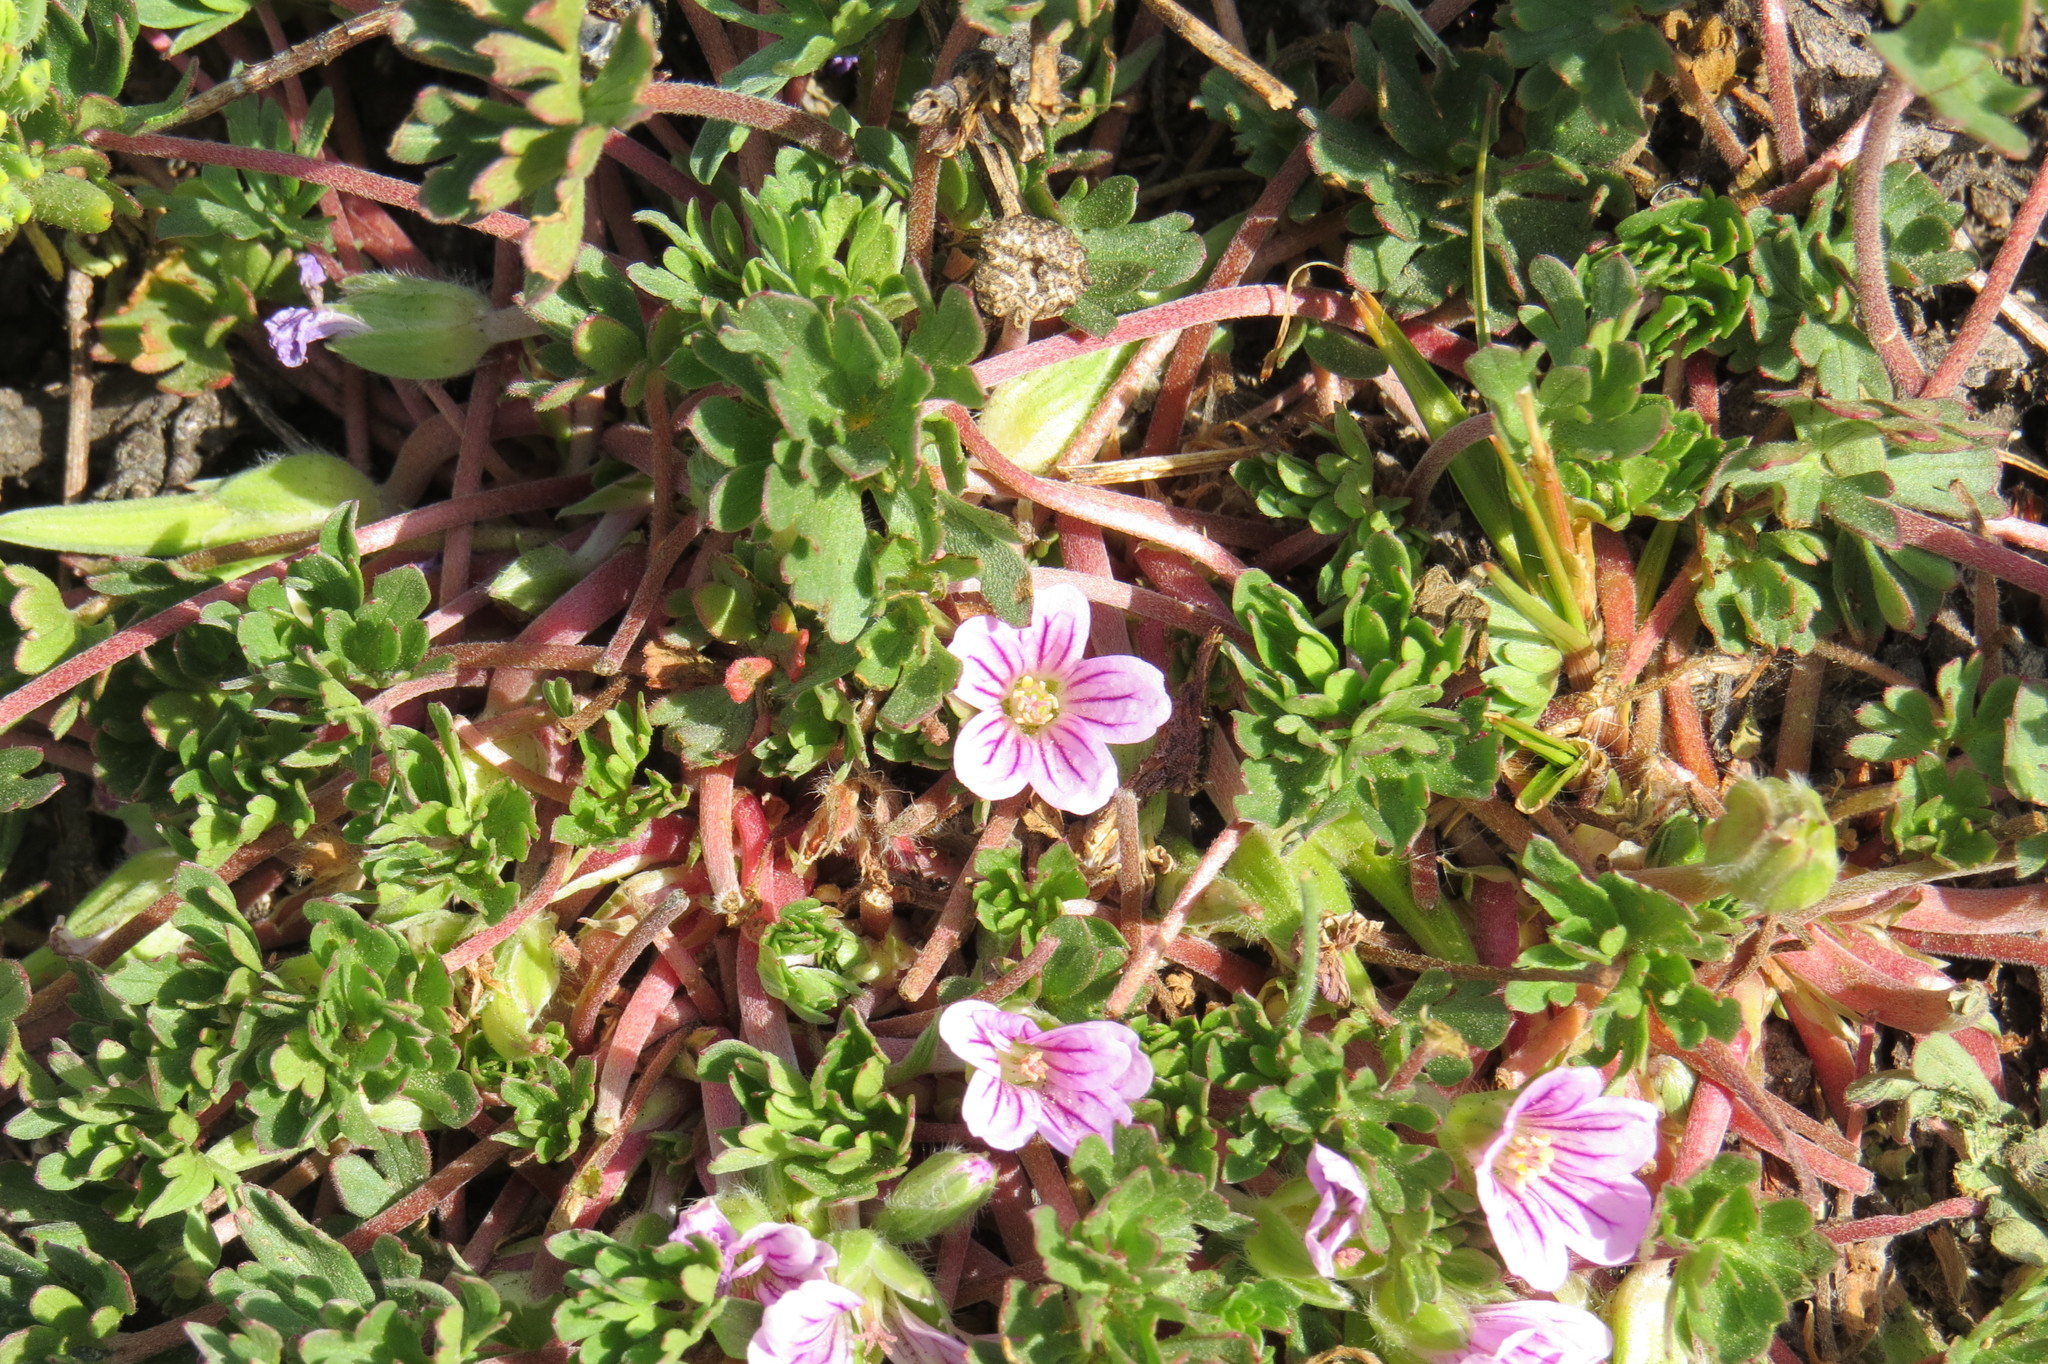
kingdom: Plantae
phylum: Tracheophyta
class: Magnoliopsida
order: Geraniales
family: Geraniaceae
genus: Geranium
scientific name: Geranium sessiliflorum
